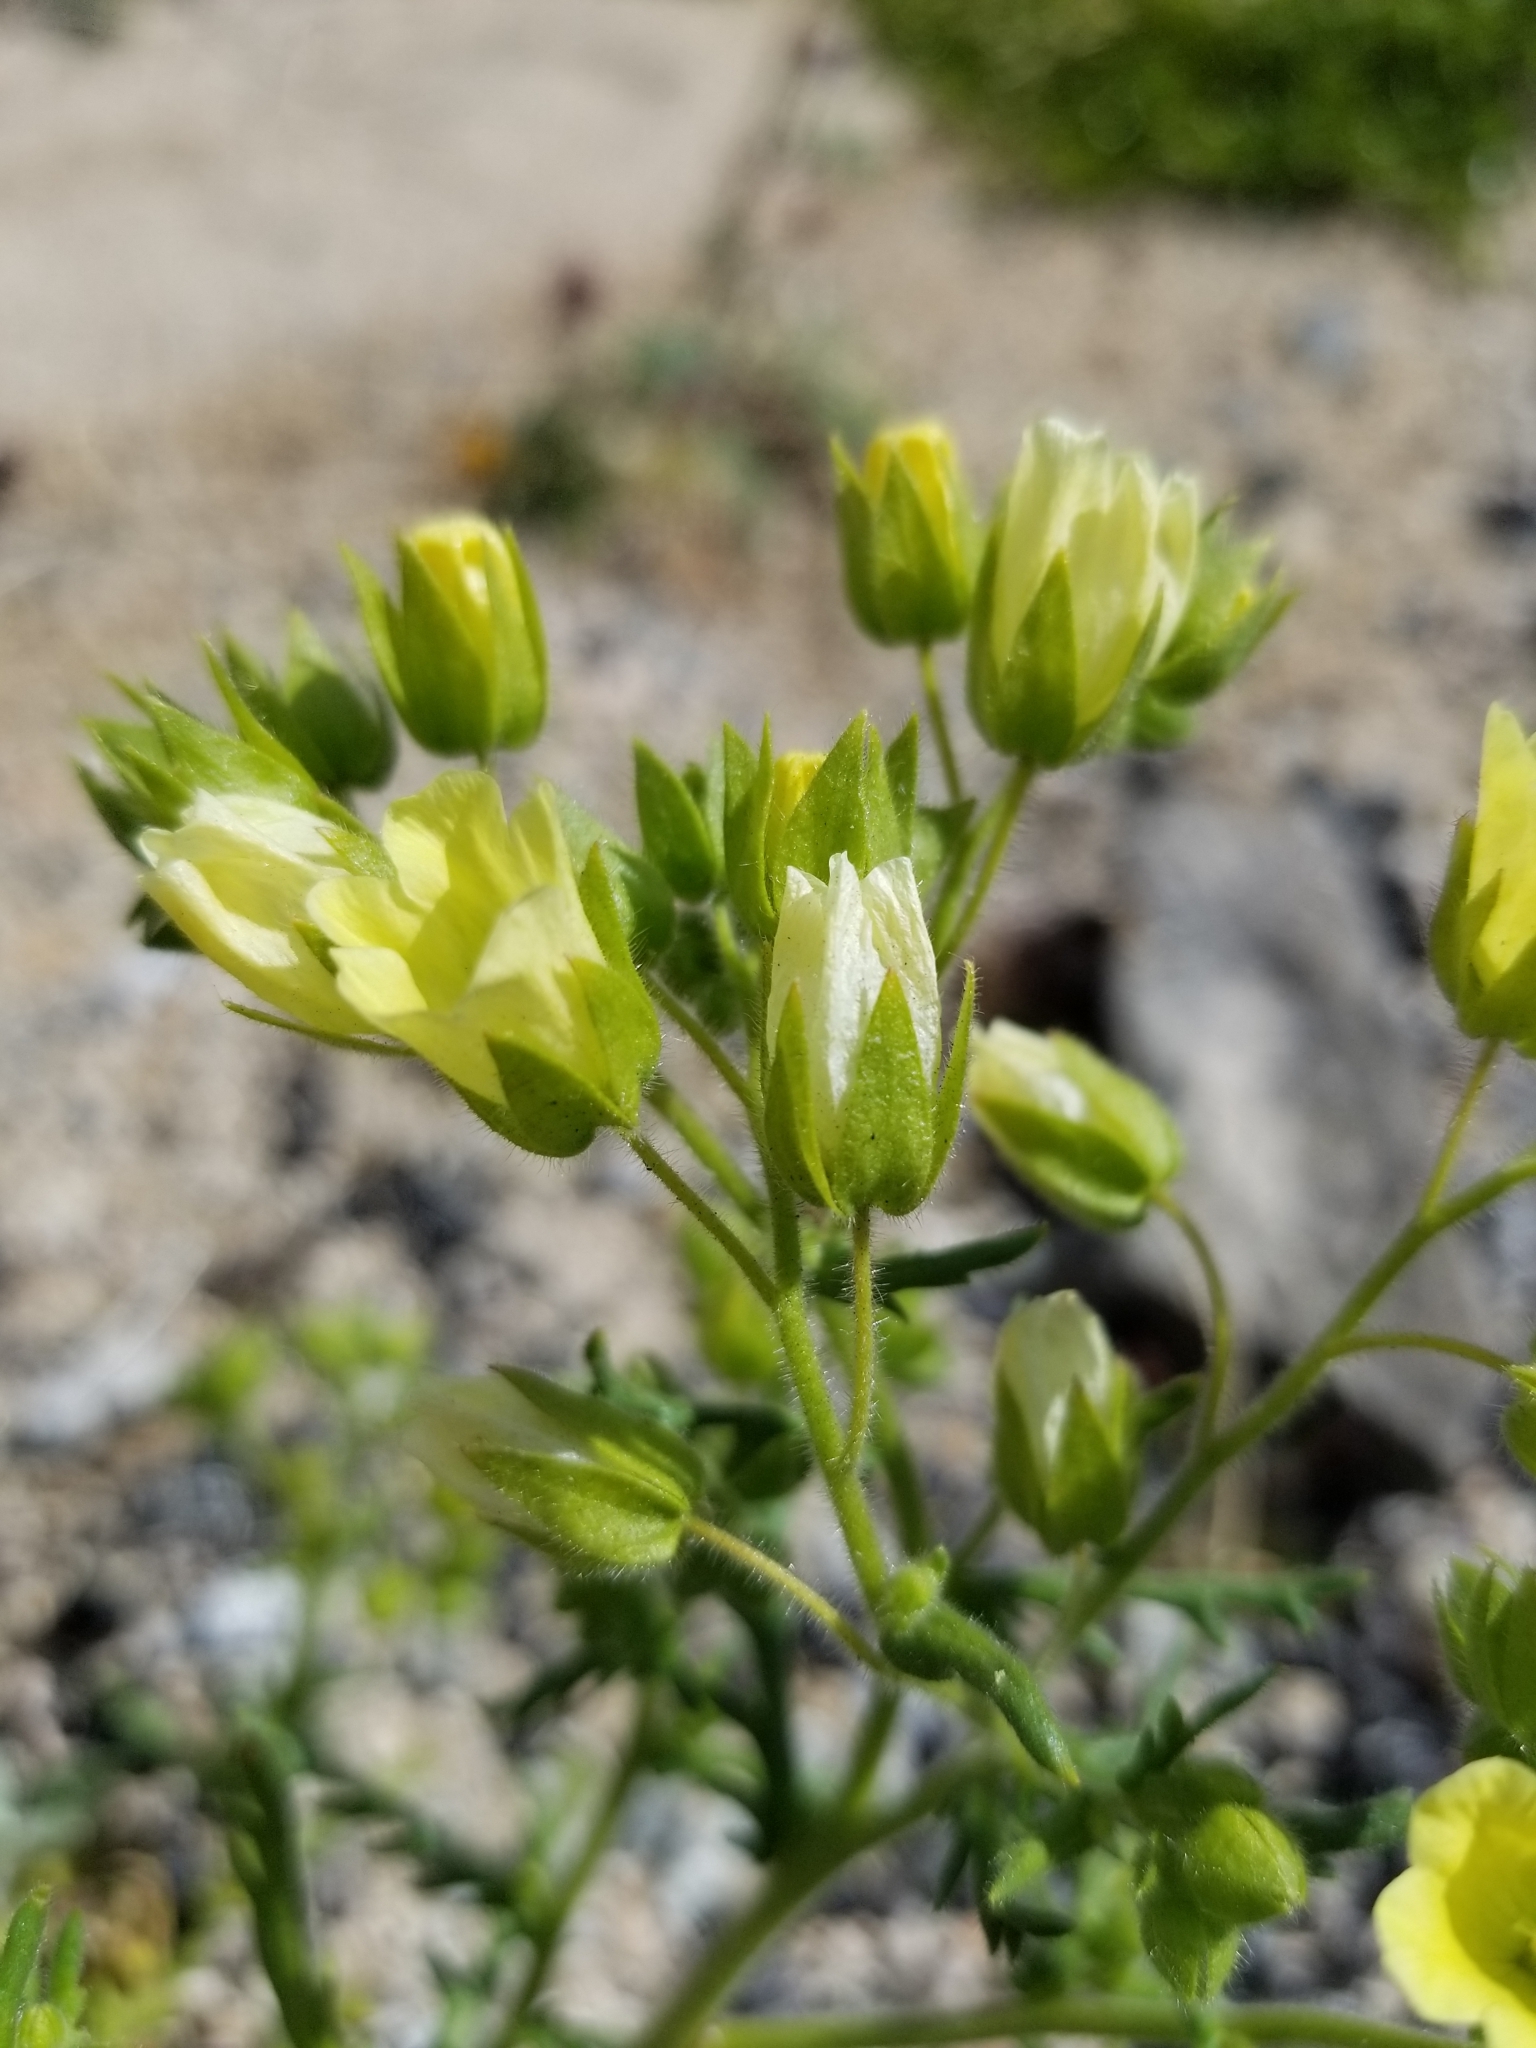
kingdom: Plantae
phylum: Tracheophyta
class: Magnoliopsida
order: Boraginales
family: Hydrophyllaceae
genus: Emmenanthe
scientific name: Emmenanthe penduliflora
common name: Whispering-bells
